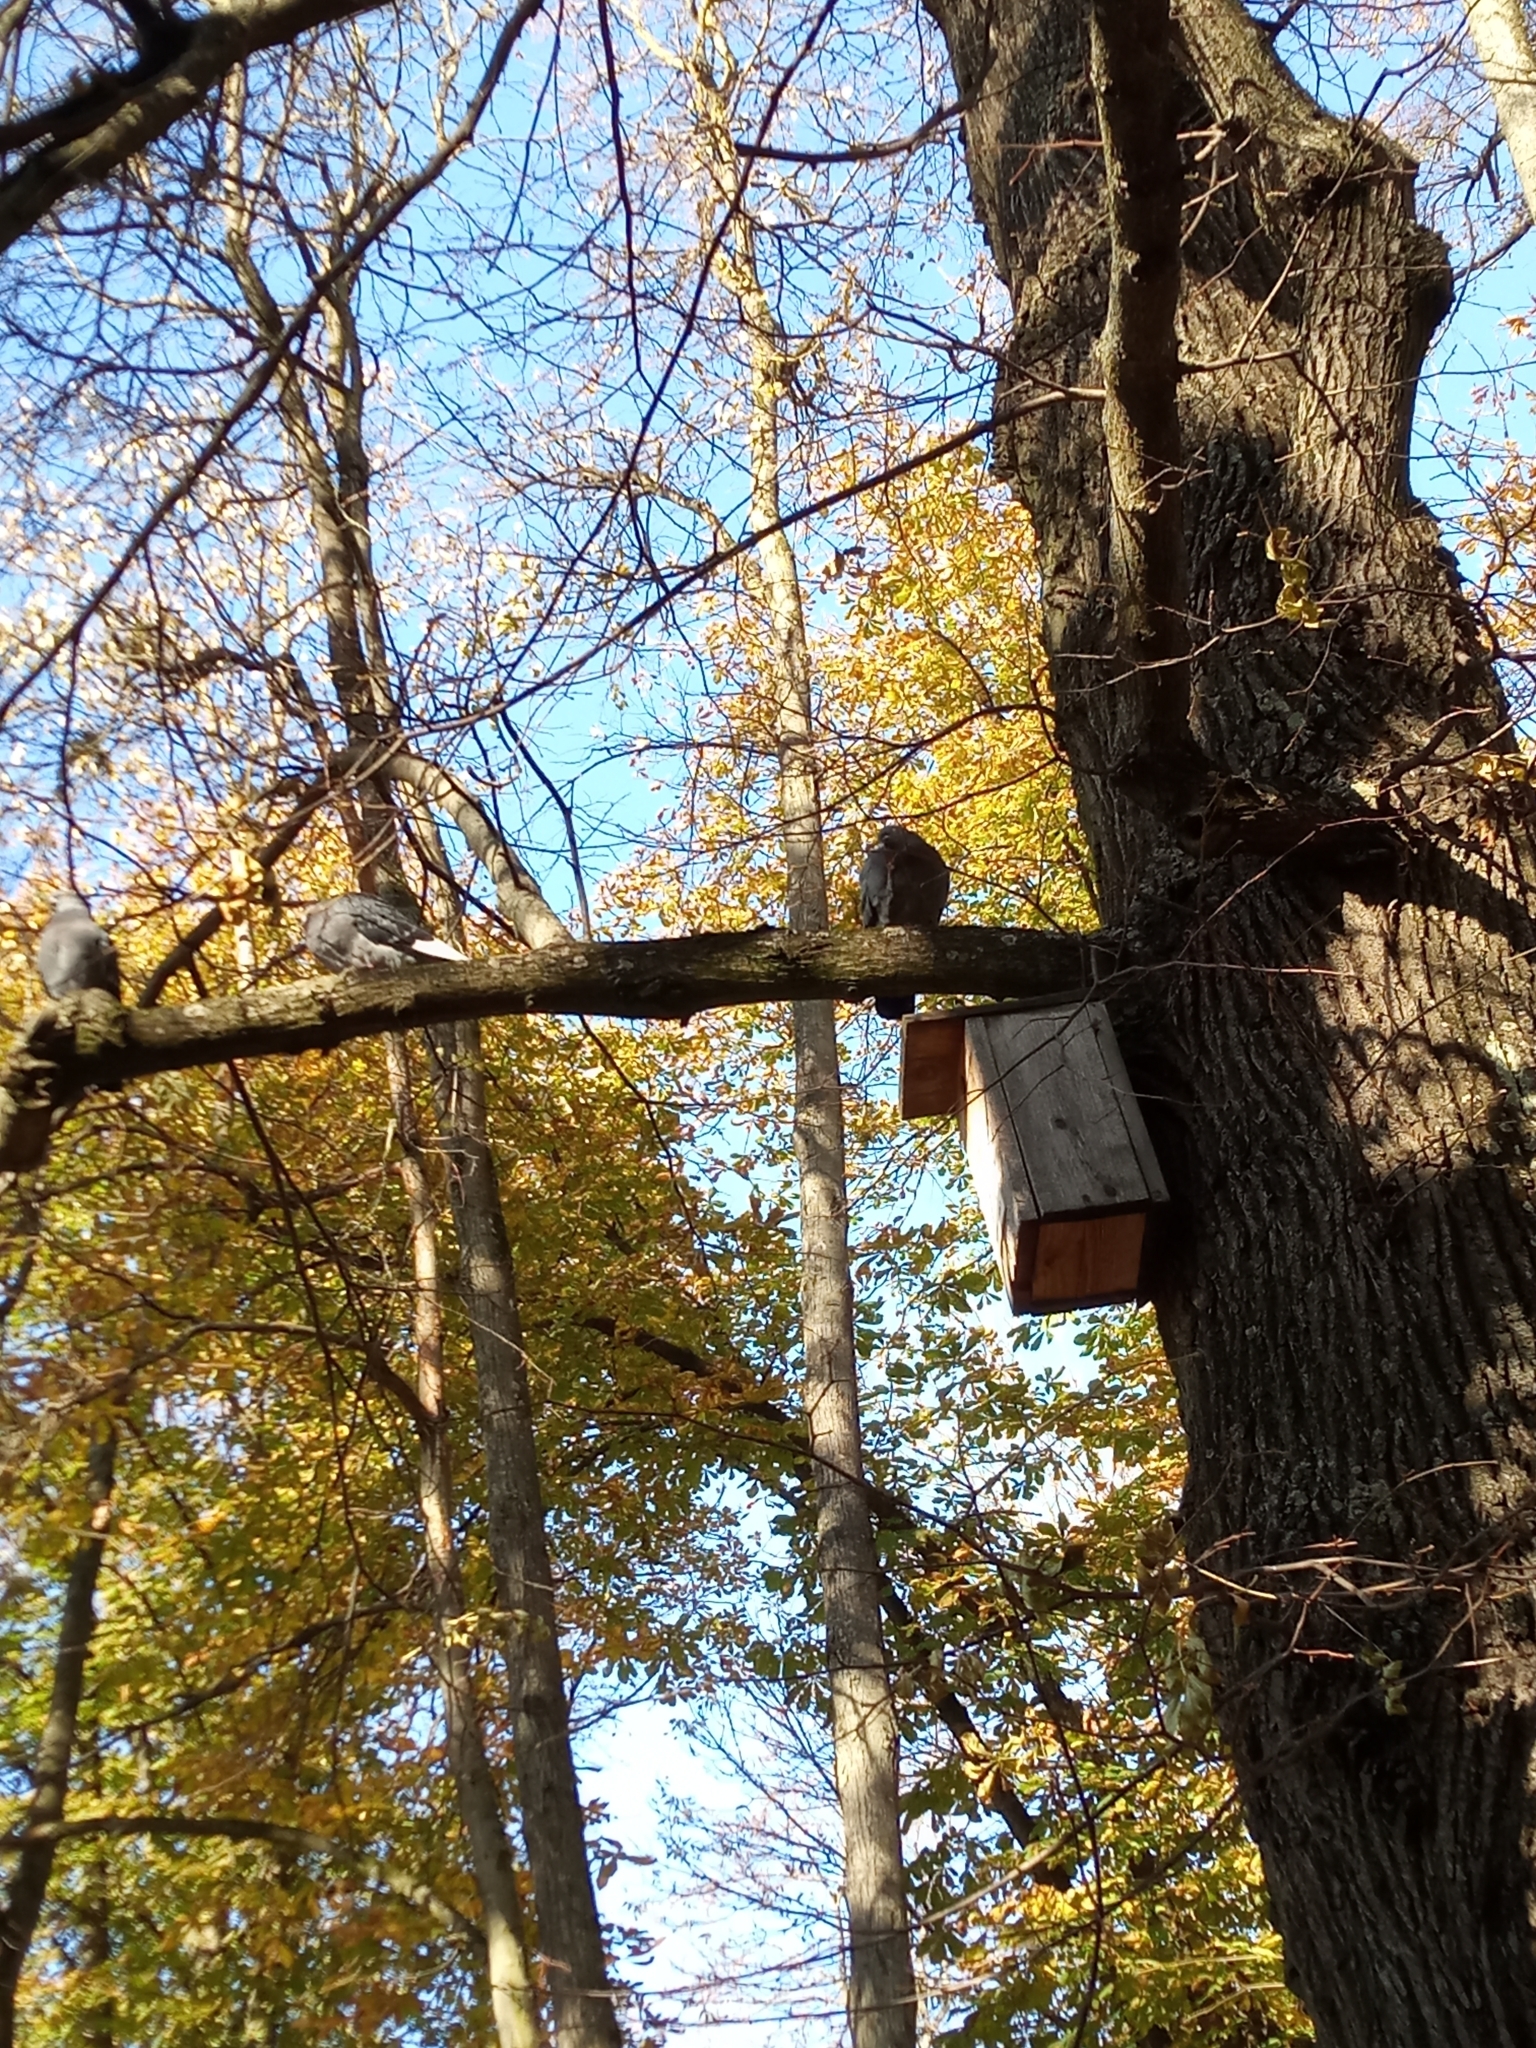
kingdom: Animalia
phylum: Chordata
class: Aves
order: Columbiformes
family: Columbidae
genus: Columba
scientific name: Columba livia
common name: Rock pigeon
